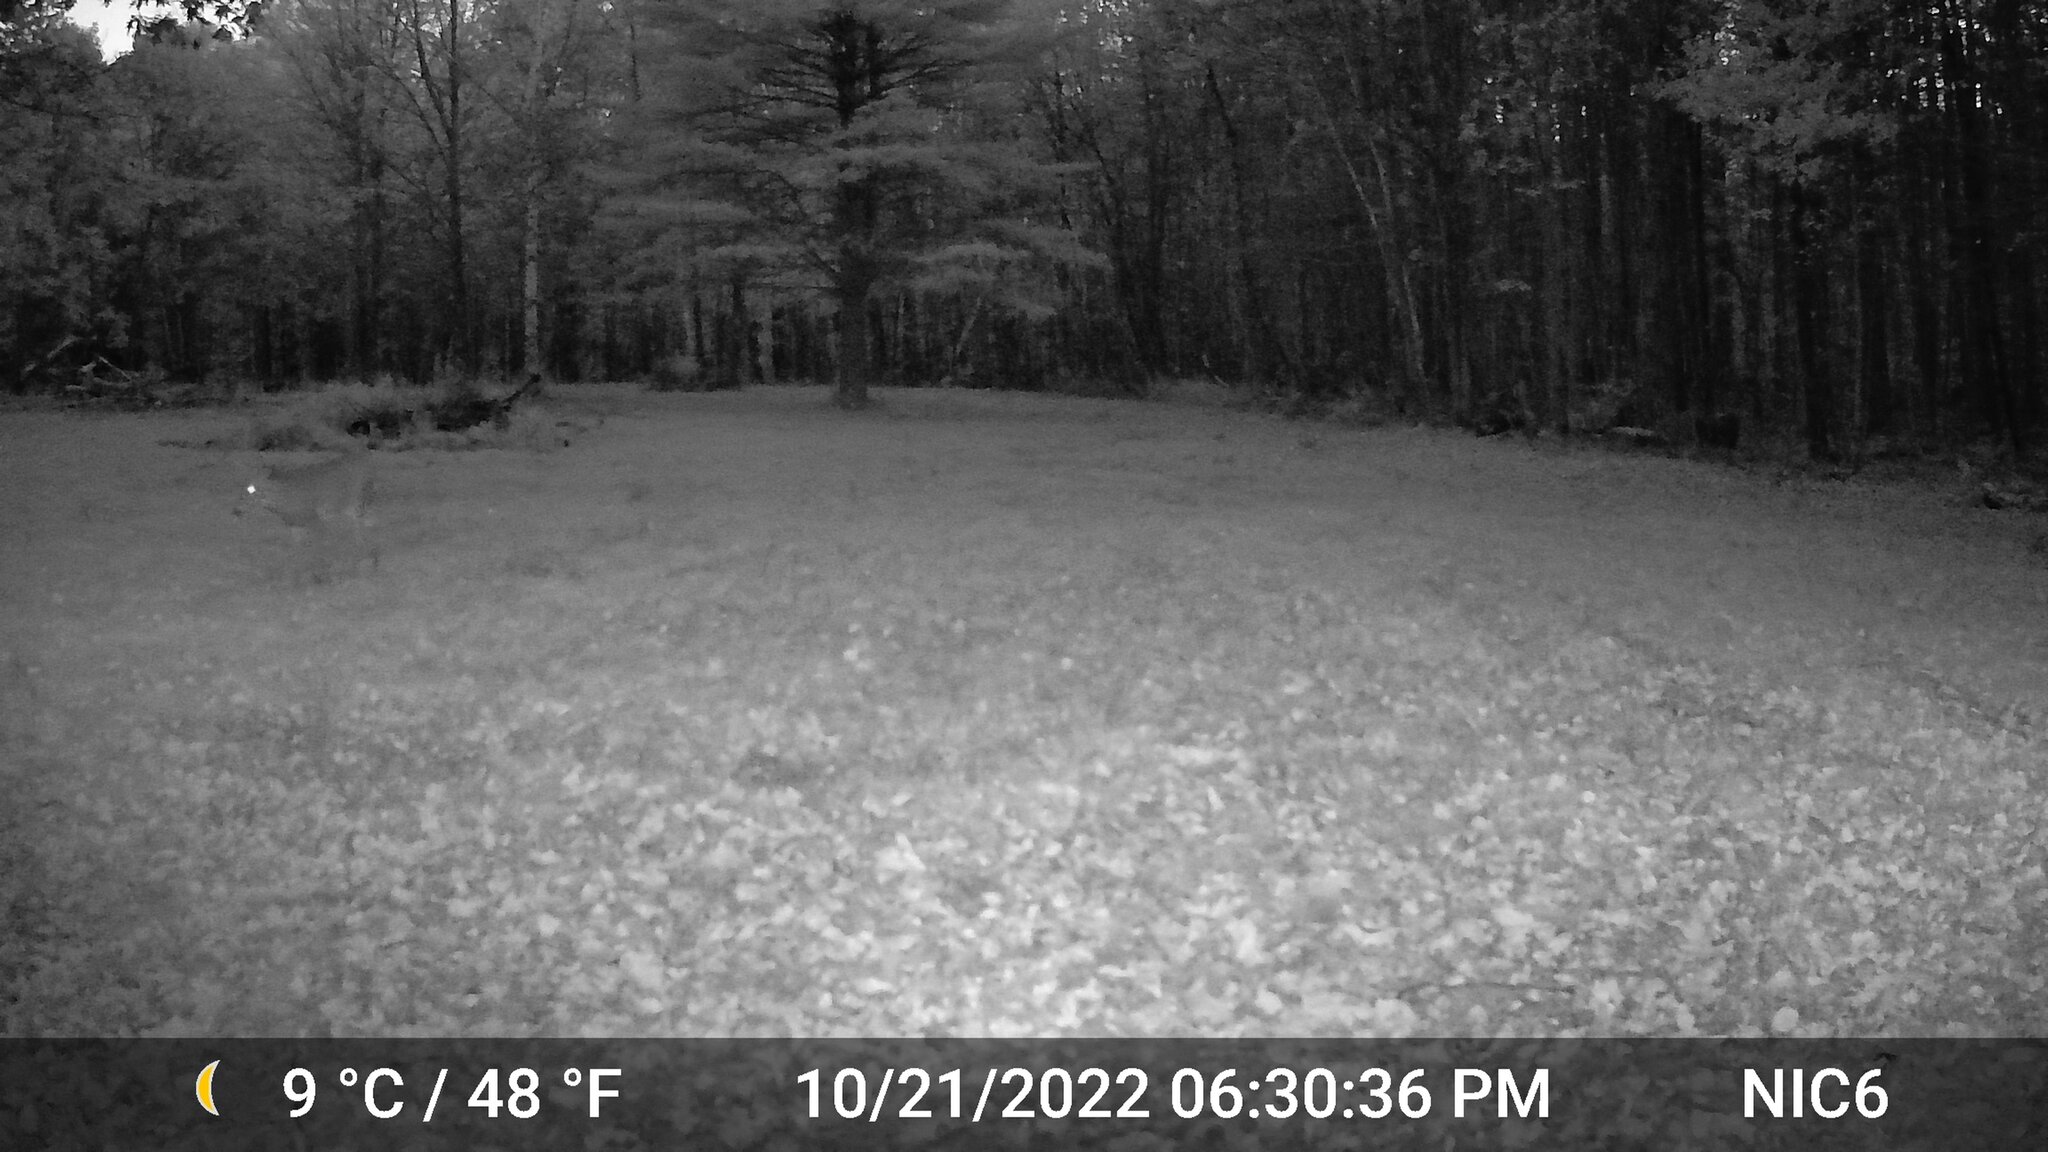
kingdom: Animalia
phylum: Chordata
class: Mammalia
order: Artiodactyla
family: Cervidae
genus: Odocoileus
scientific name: Odocoileus virginianus
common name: White-tailed deer
